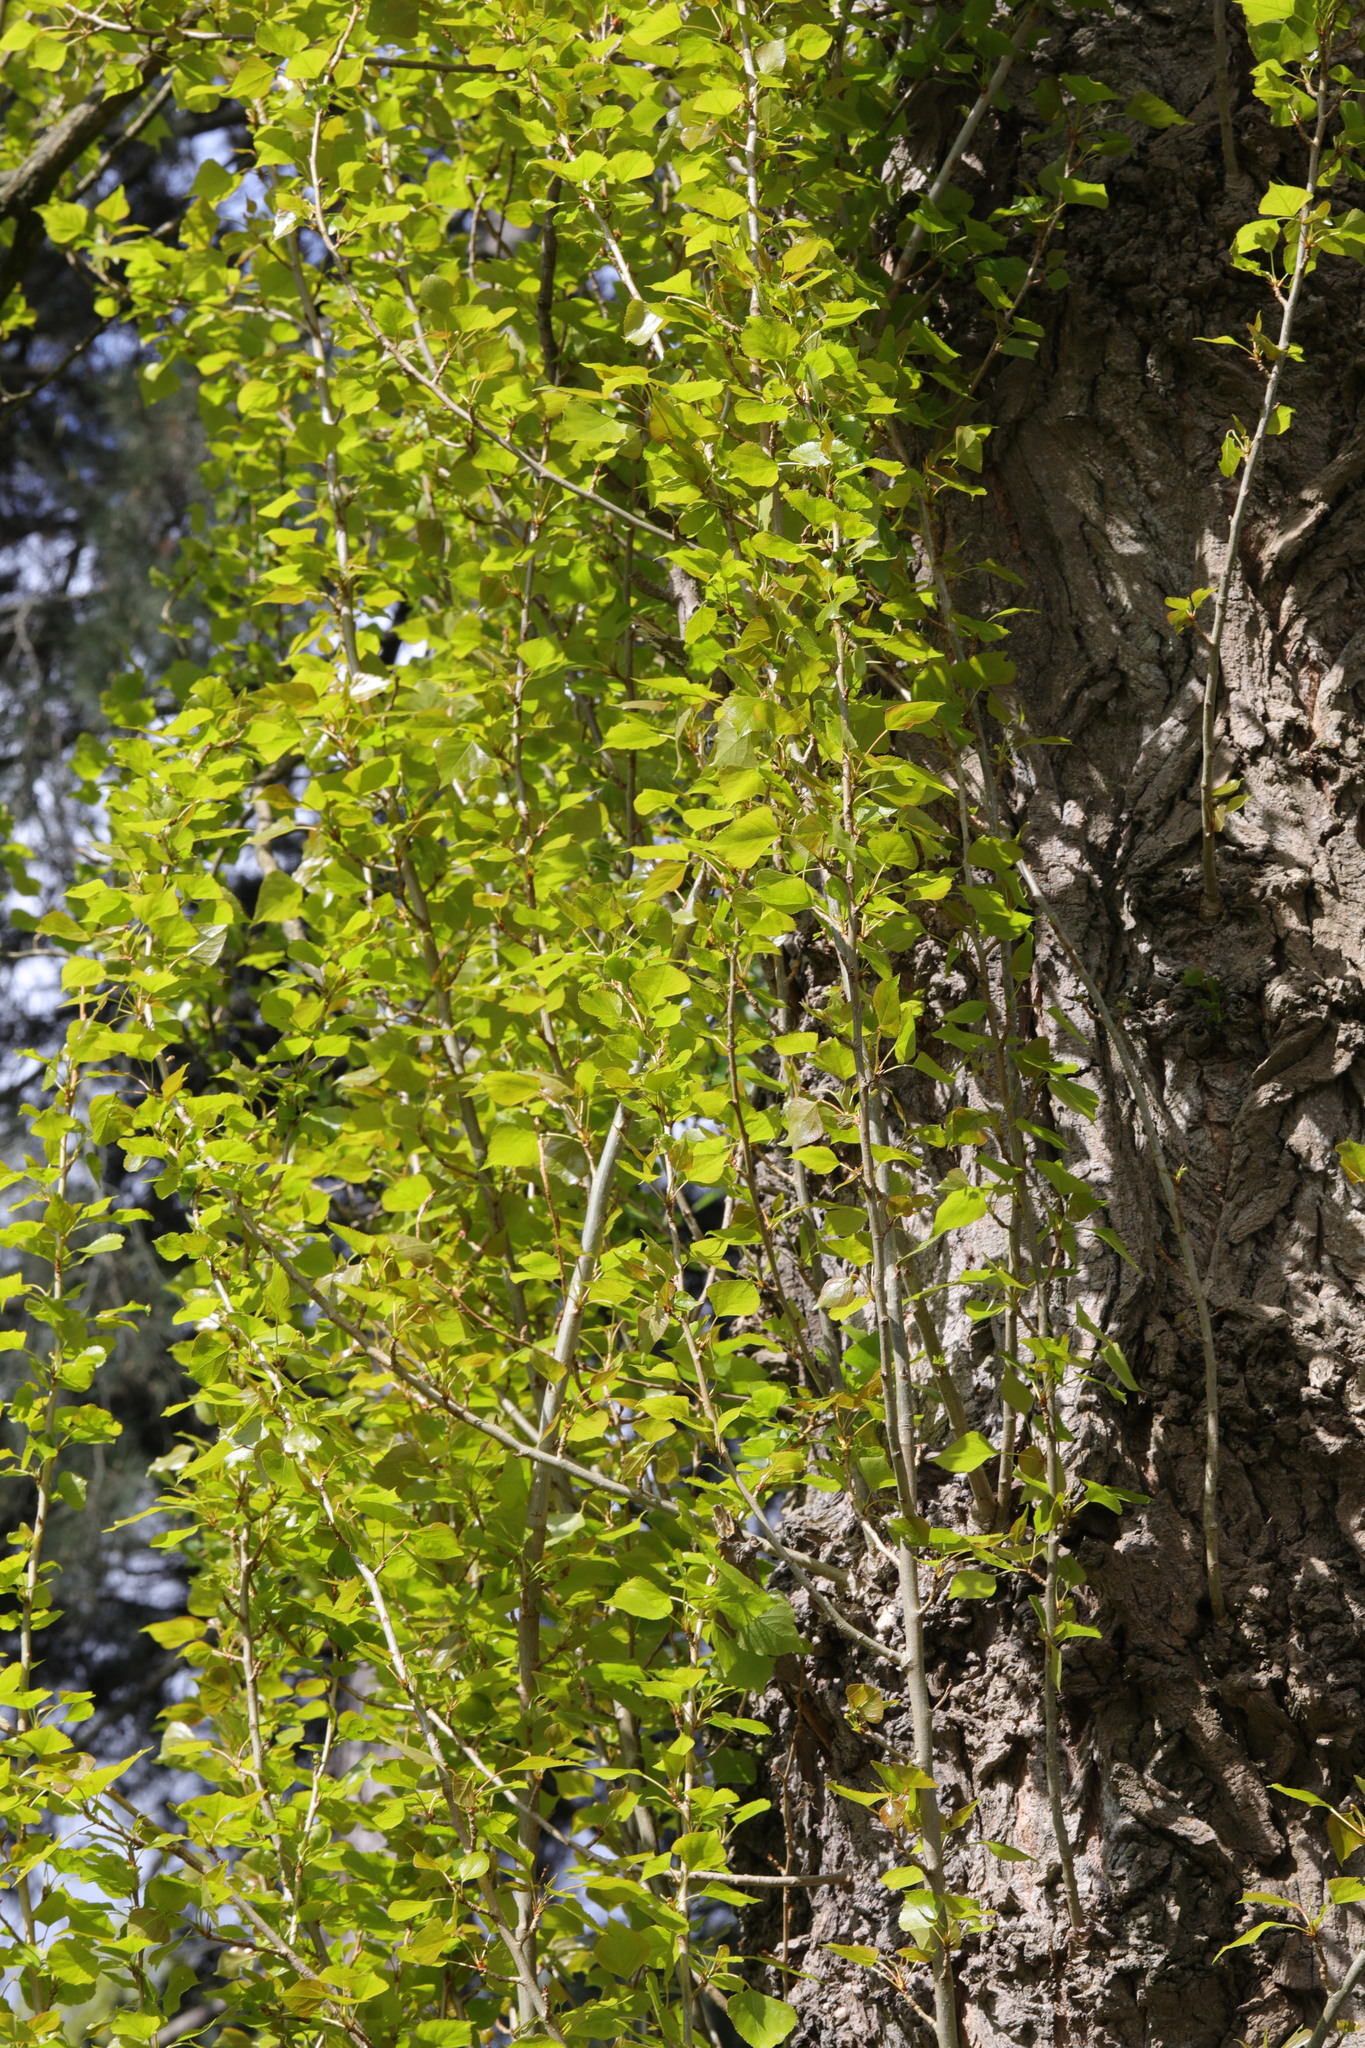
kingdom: Plantae
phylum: Tracheophyta
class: Magnoliopsida
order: Malpighiales
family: Salicaceae
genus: Populus
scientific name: Populus nigra
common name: Black poplar
